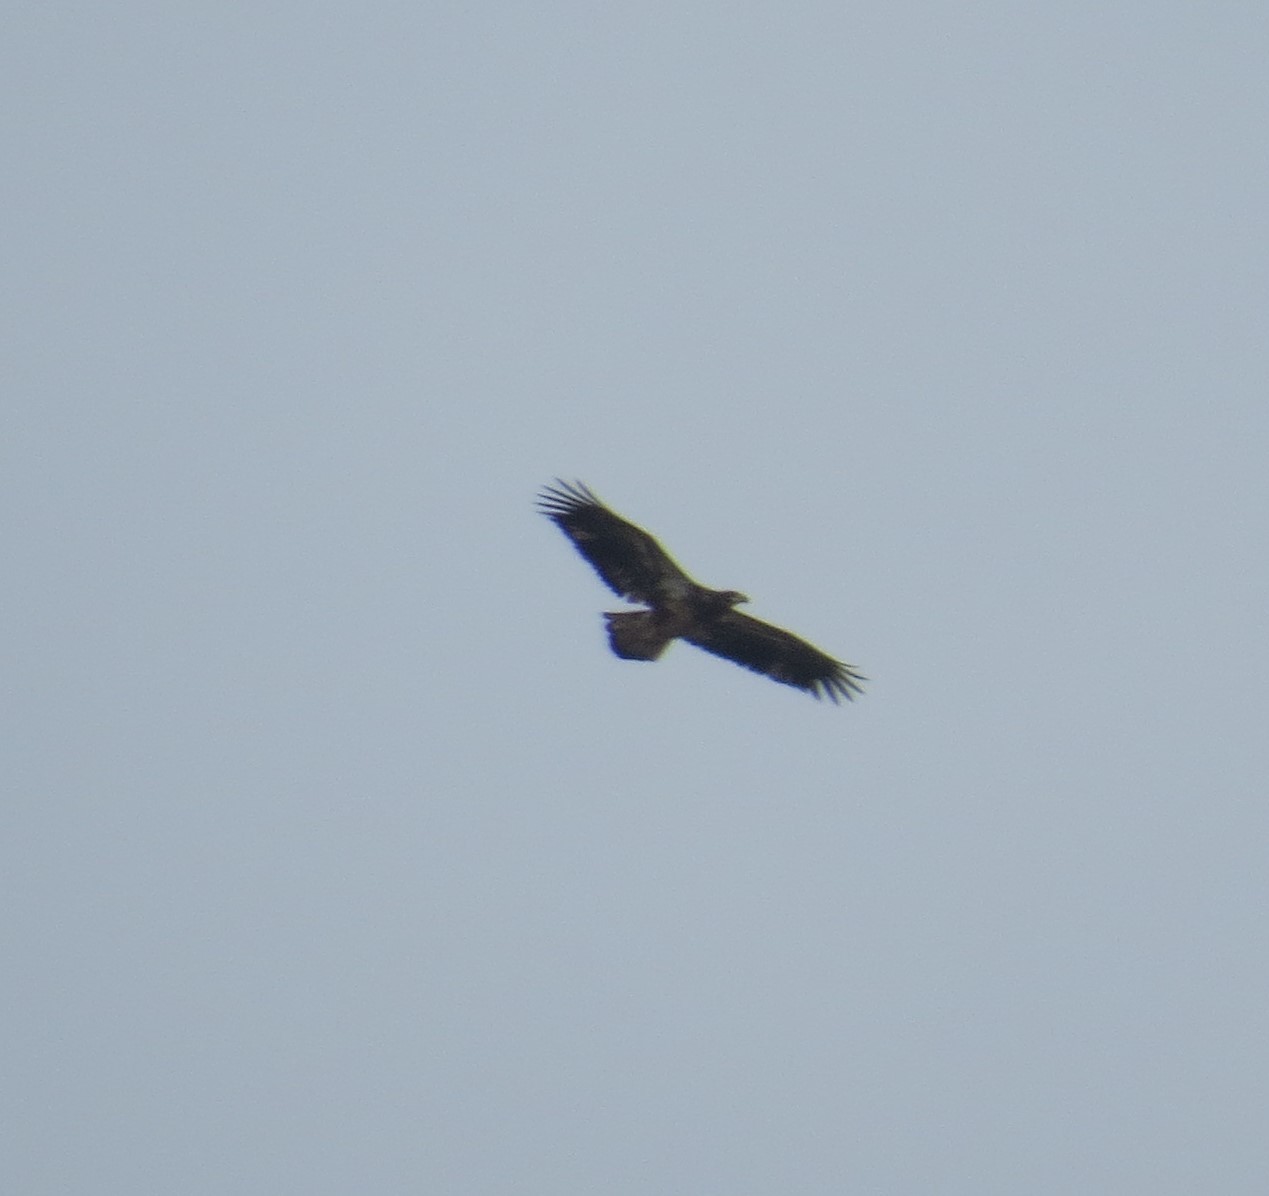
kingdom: Animalia
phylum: Chordata
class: Aves
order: Accipitriformes
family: Accipitridae
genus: Haliaeetus
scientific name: Haliaeetus leucocephalus
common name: Bald eagle
